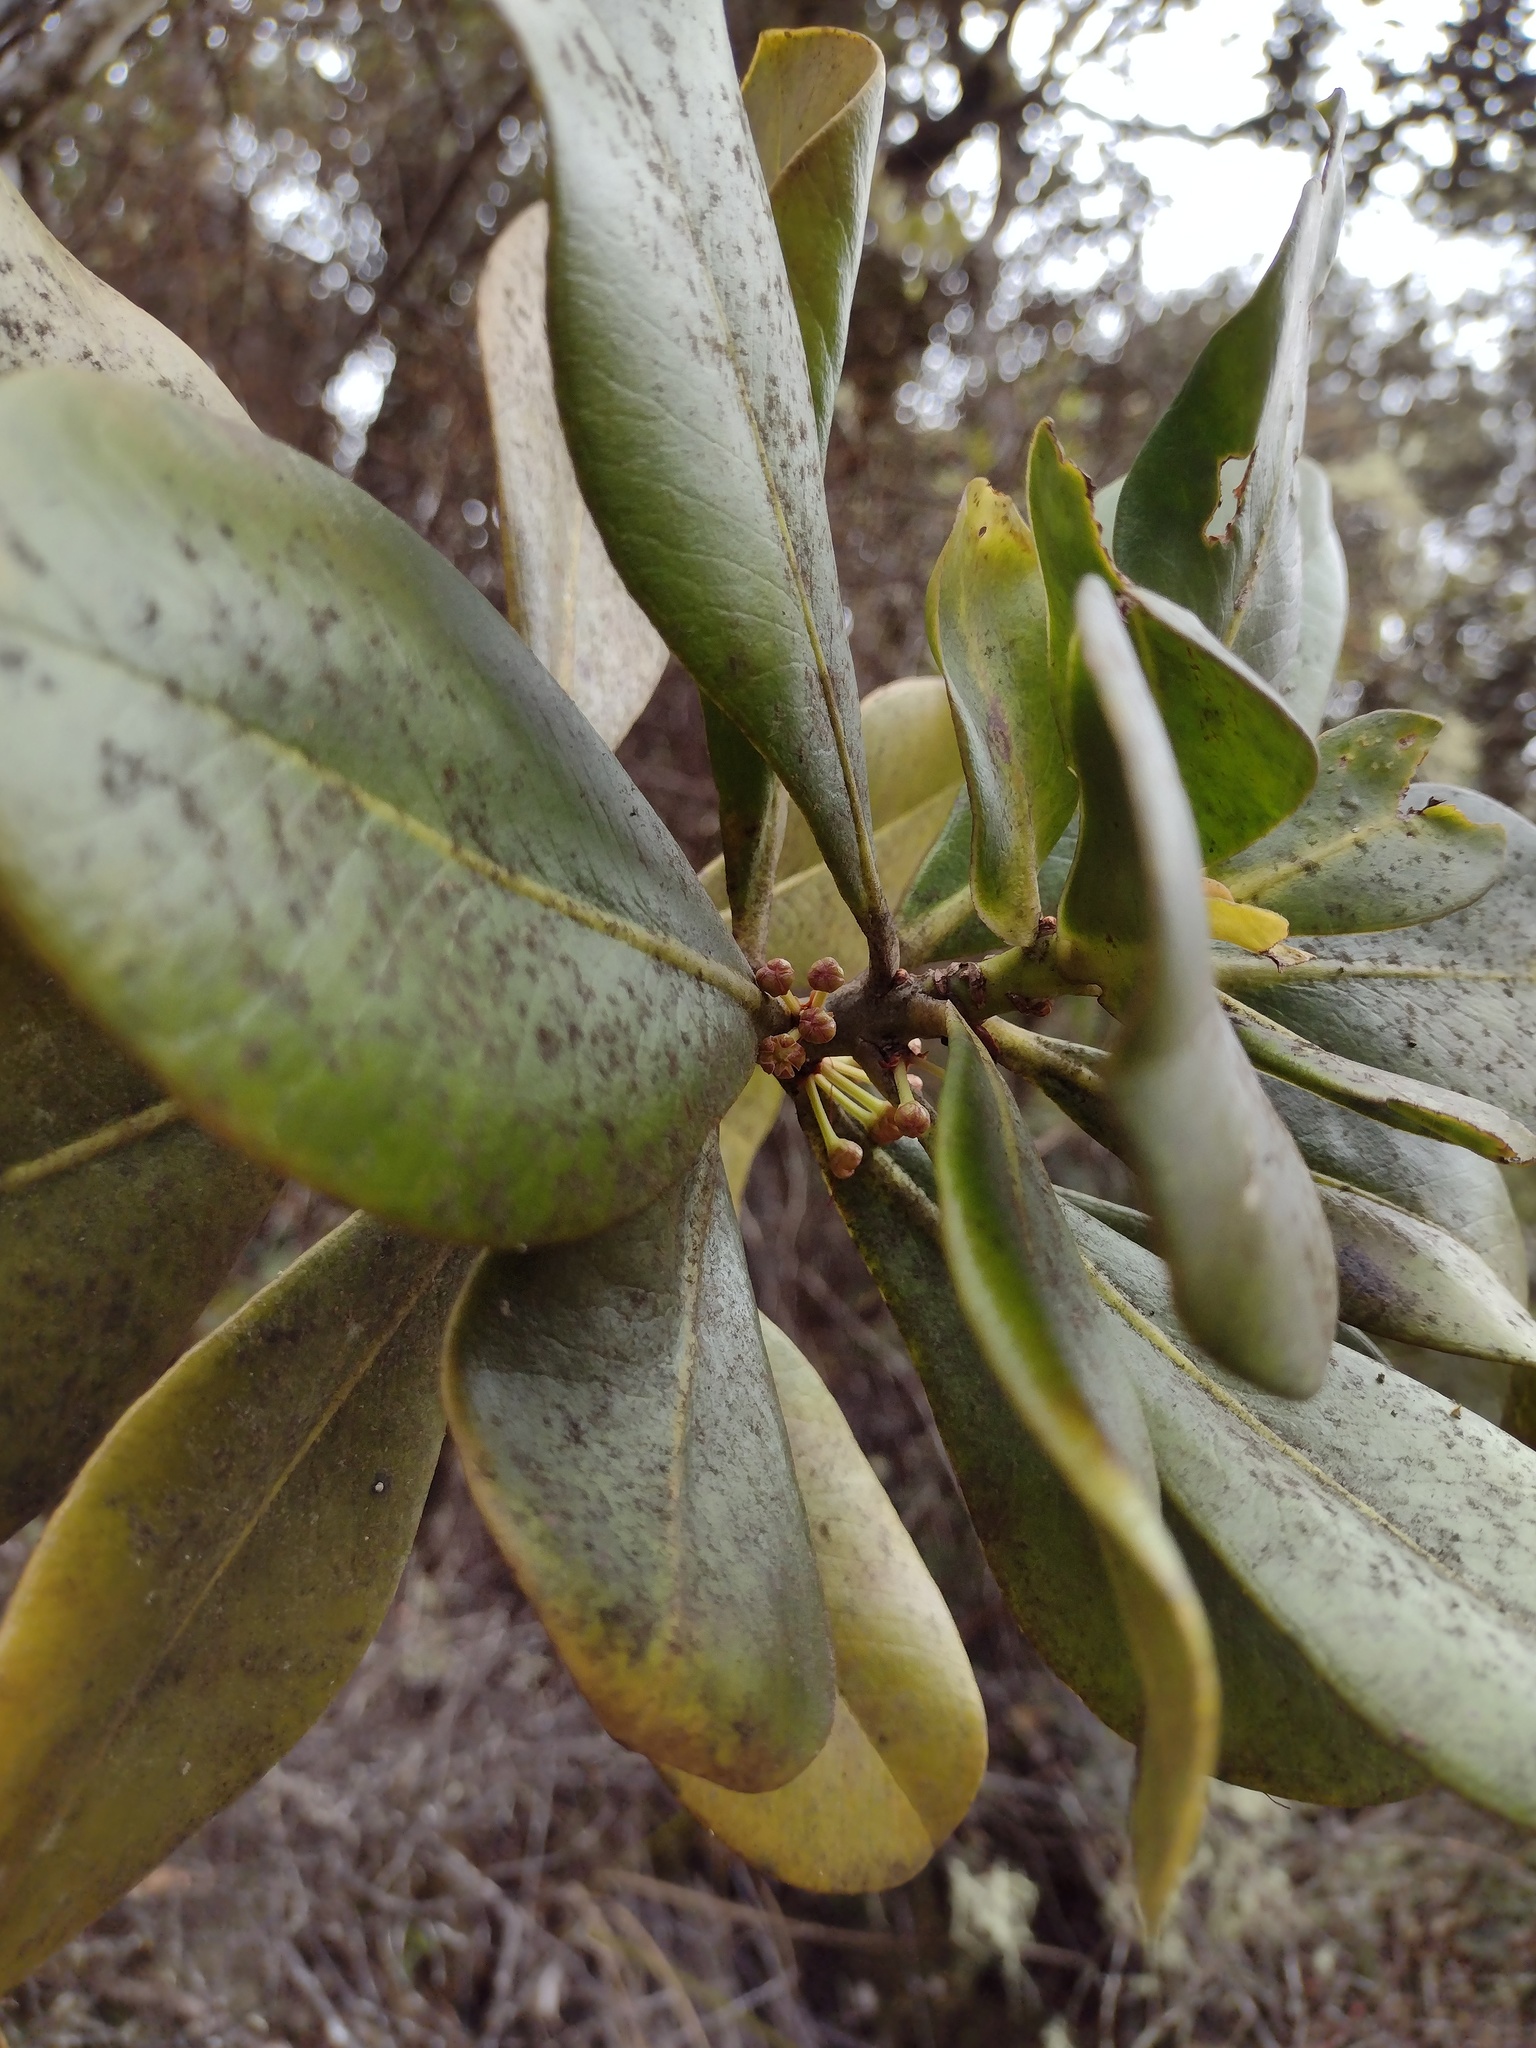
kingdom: Plantae
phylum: Tracheophyta
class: Magnoliopsida
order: Ericales
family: Primulaceae
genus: Myrsine
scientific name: Myrsine lessertiana
